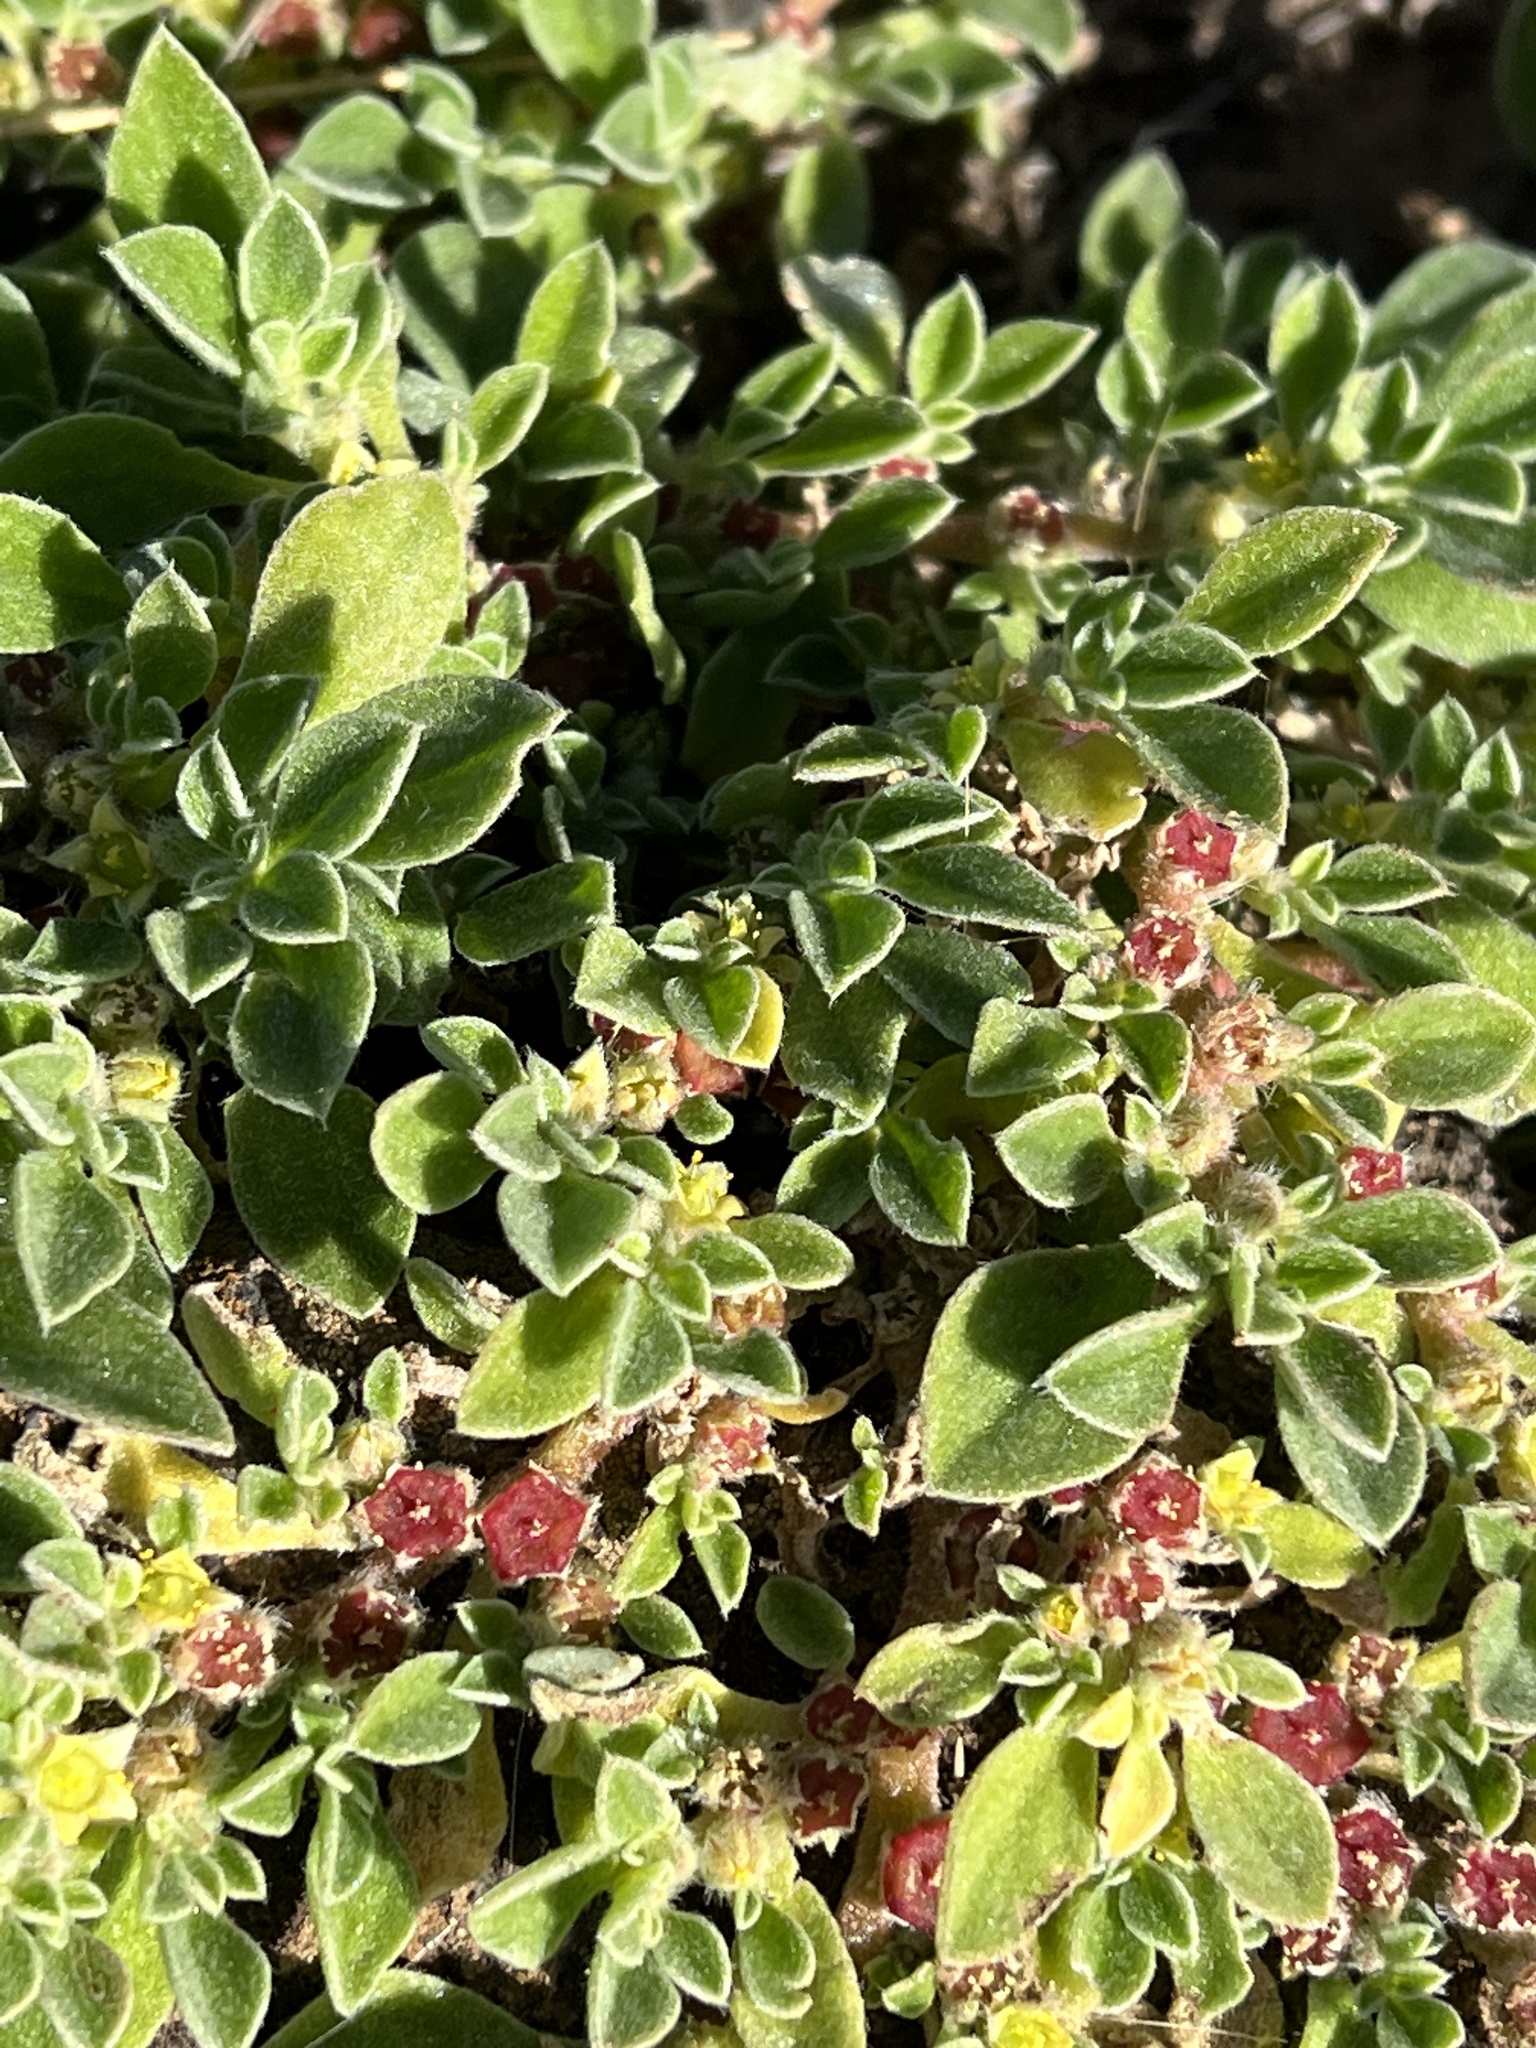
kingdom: Plantae
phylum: Tracheophyta
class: Magnoliopsida
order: Caryophyllales
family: Aizoaceae
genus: Aizoon
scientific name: Aizoon canariense
